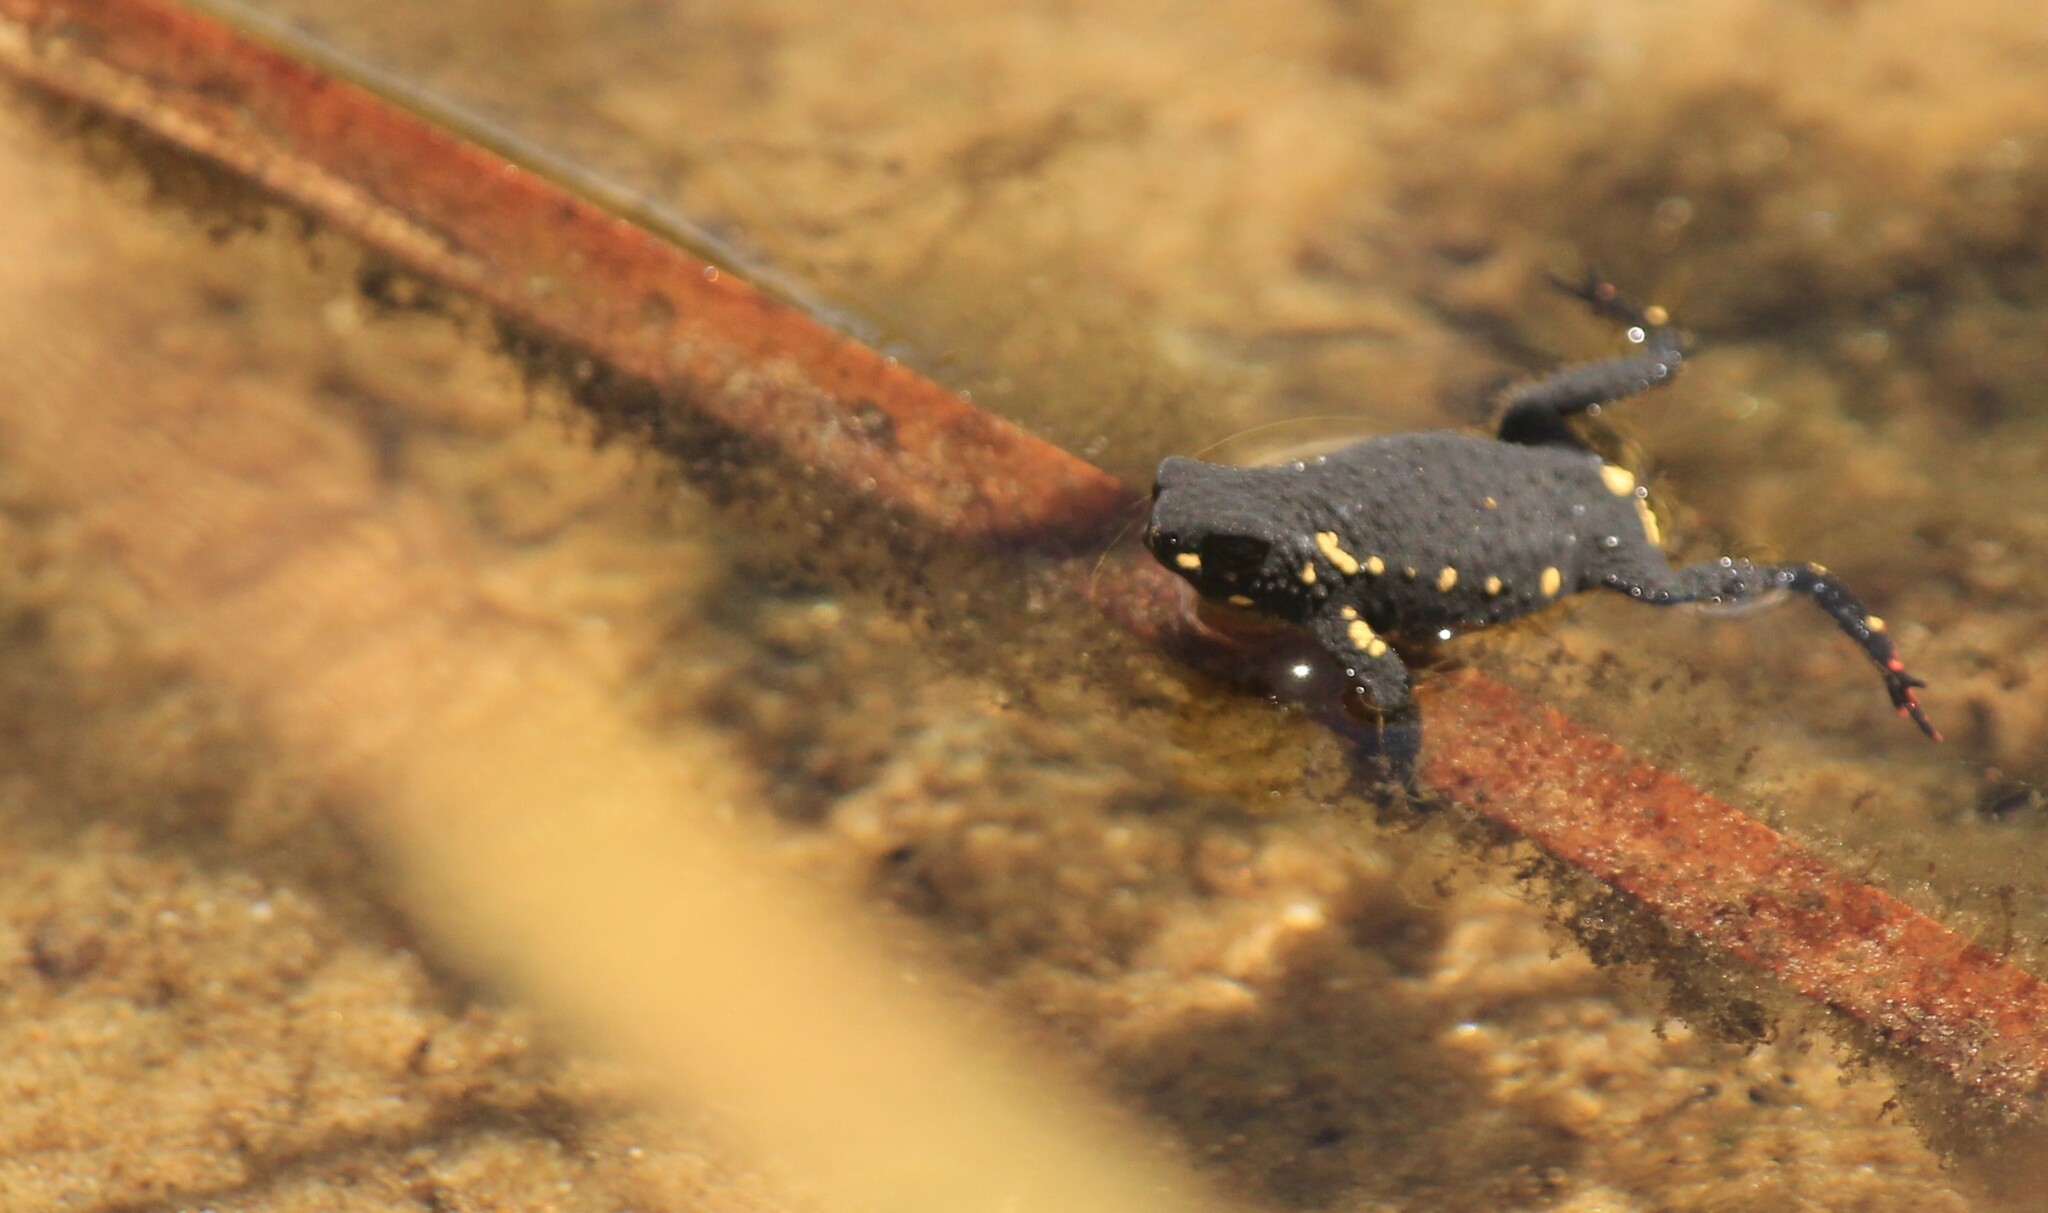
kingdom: Animalia
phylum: Chordata
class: Amphibia
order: Anura
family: Bufonidae
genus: Melanophryniscus
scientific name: Melanophryniscus montevidensis
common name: Montevideo redbelly toad
